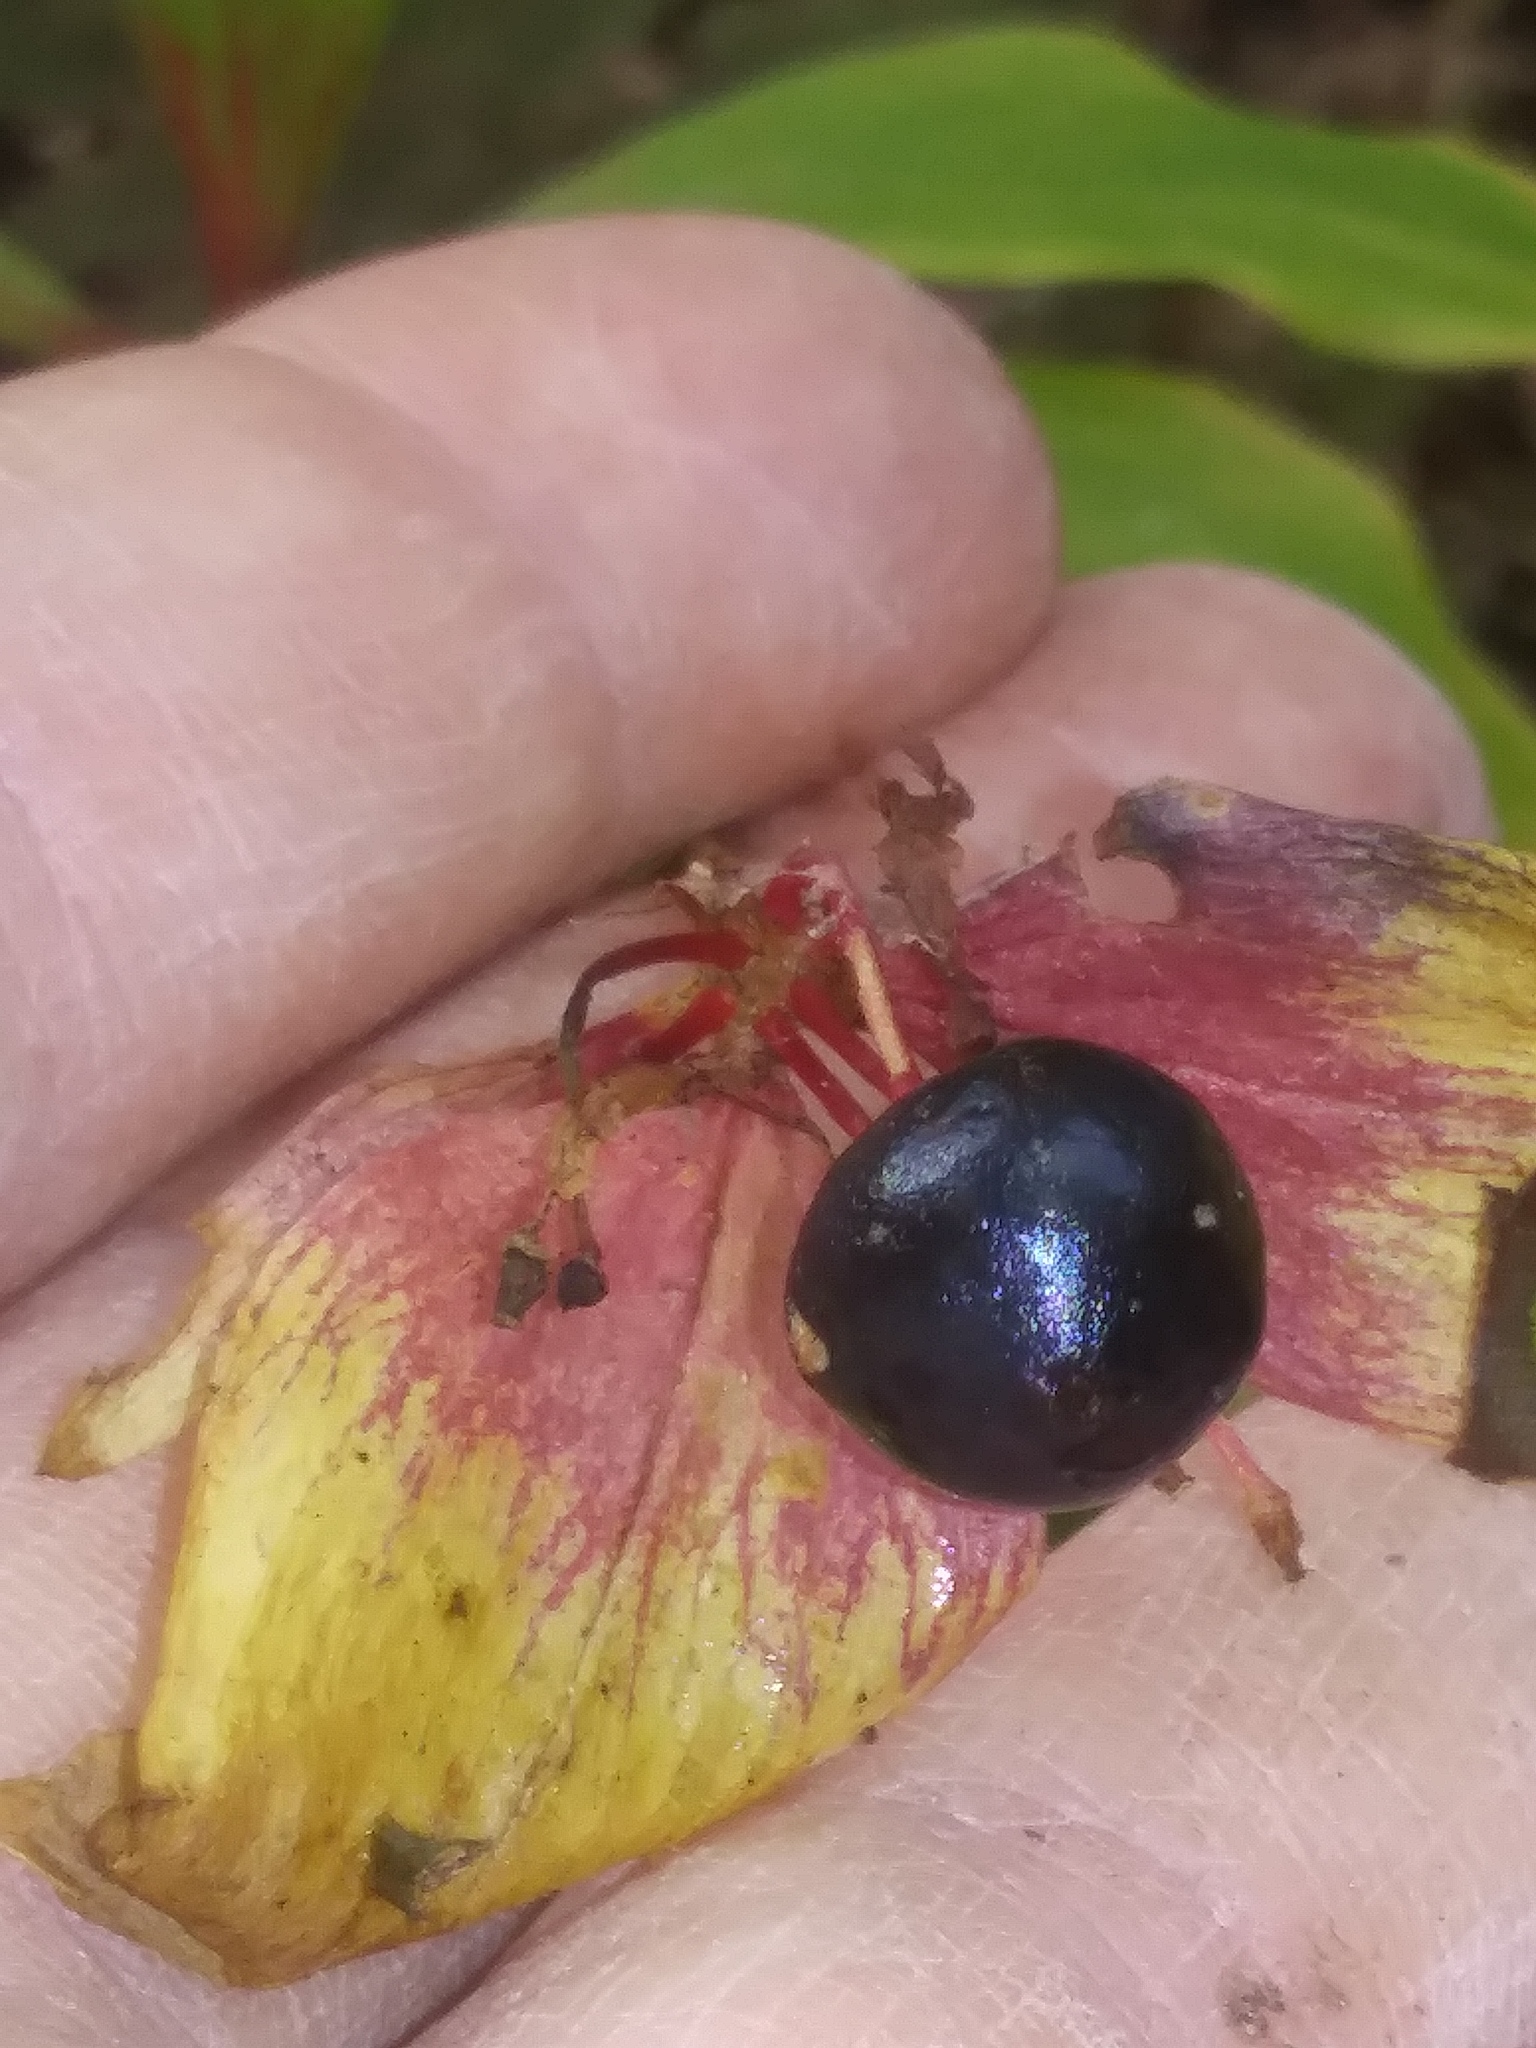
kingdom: Plantae
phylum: Tracheophyta
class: Liliopsida
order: Liliales
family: Liliaceae
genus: Medeola
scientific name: Medeola virginiana
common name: Indian cucumber-root
